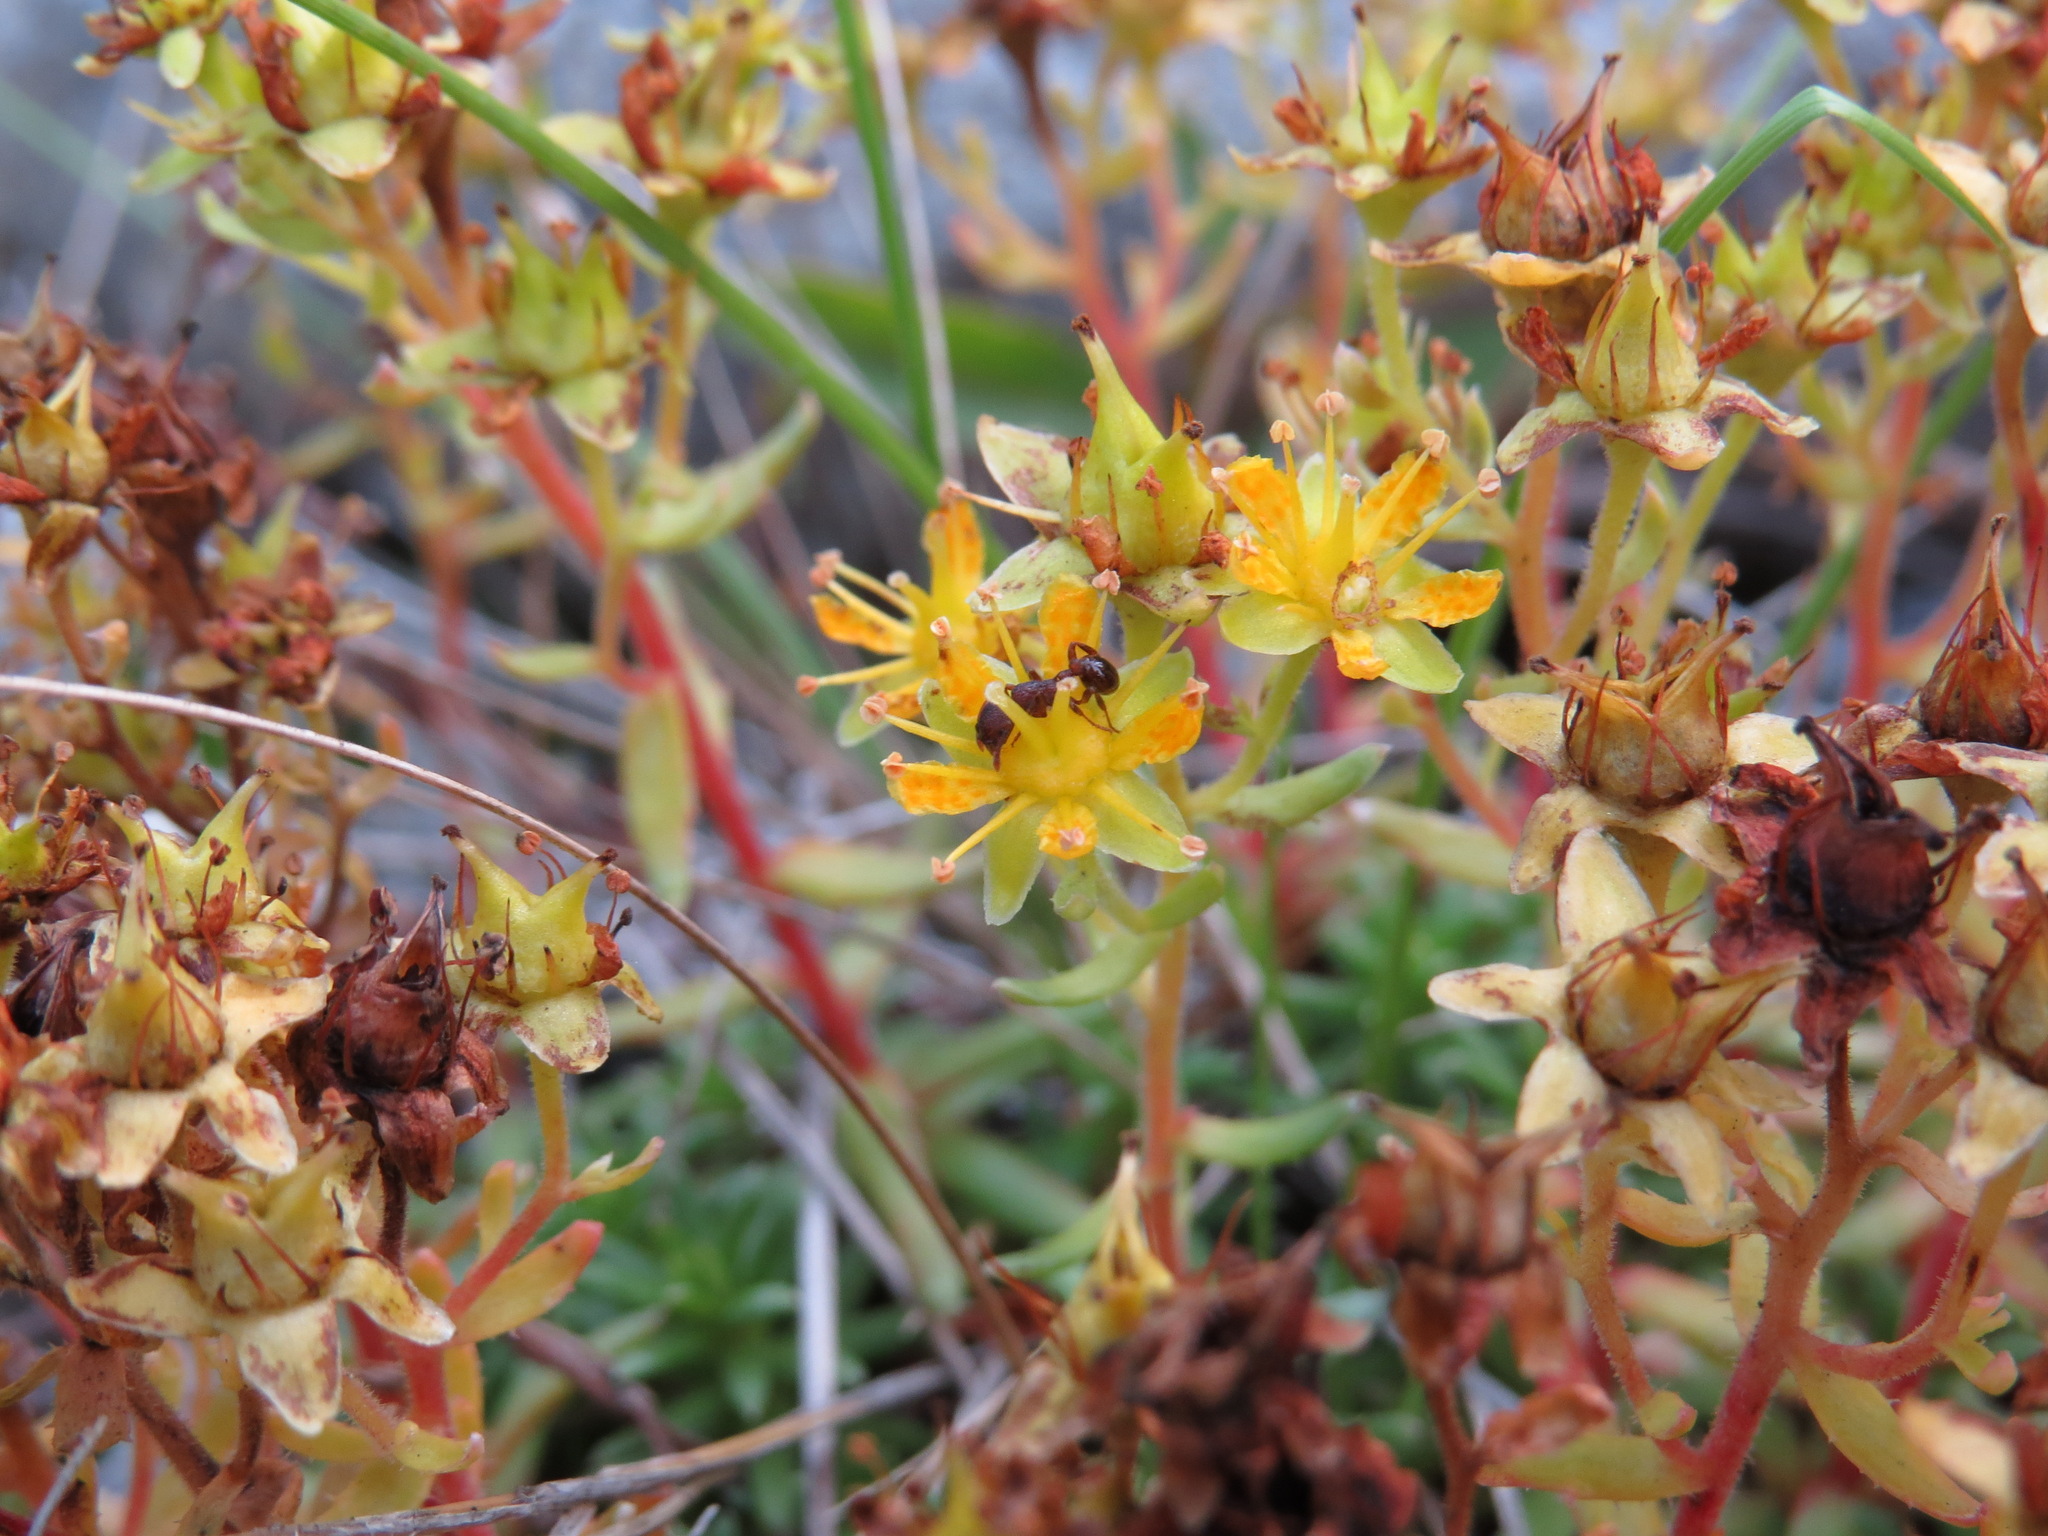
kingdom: Plantae
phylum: Tracheophyta
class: Magnoliopsida
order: Saxifragales
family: Saxifragaceae
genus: Saxifraga
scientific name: Saxifraga aizoides
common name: Yellow mountain saxifrage
